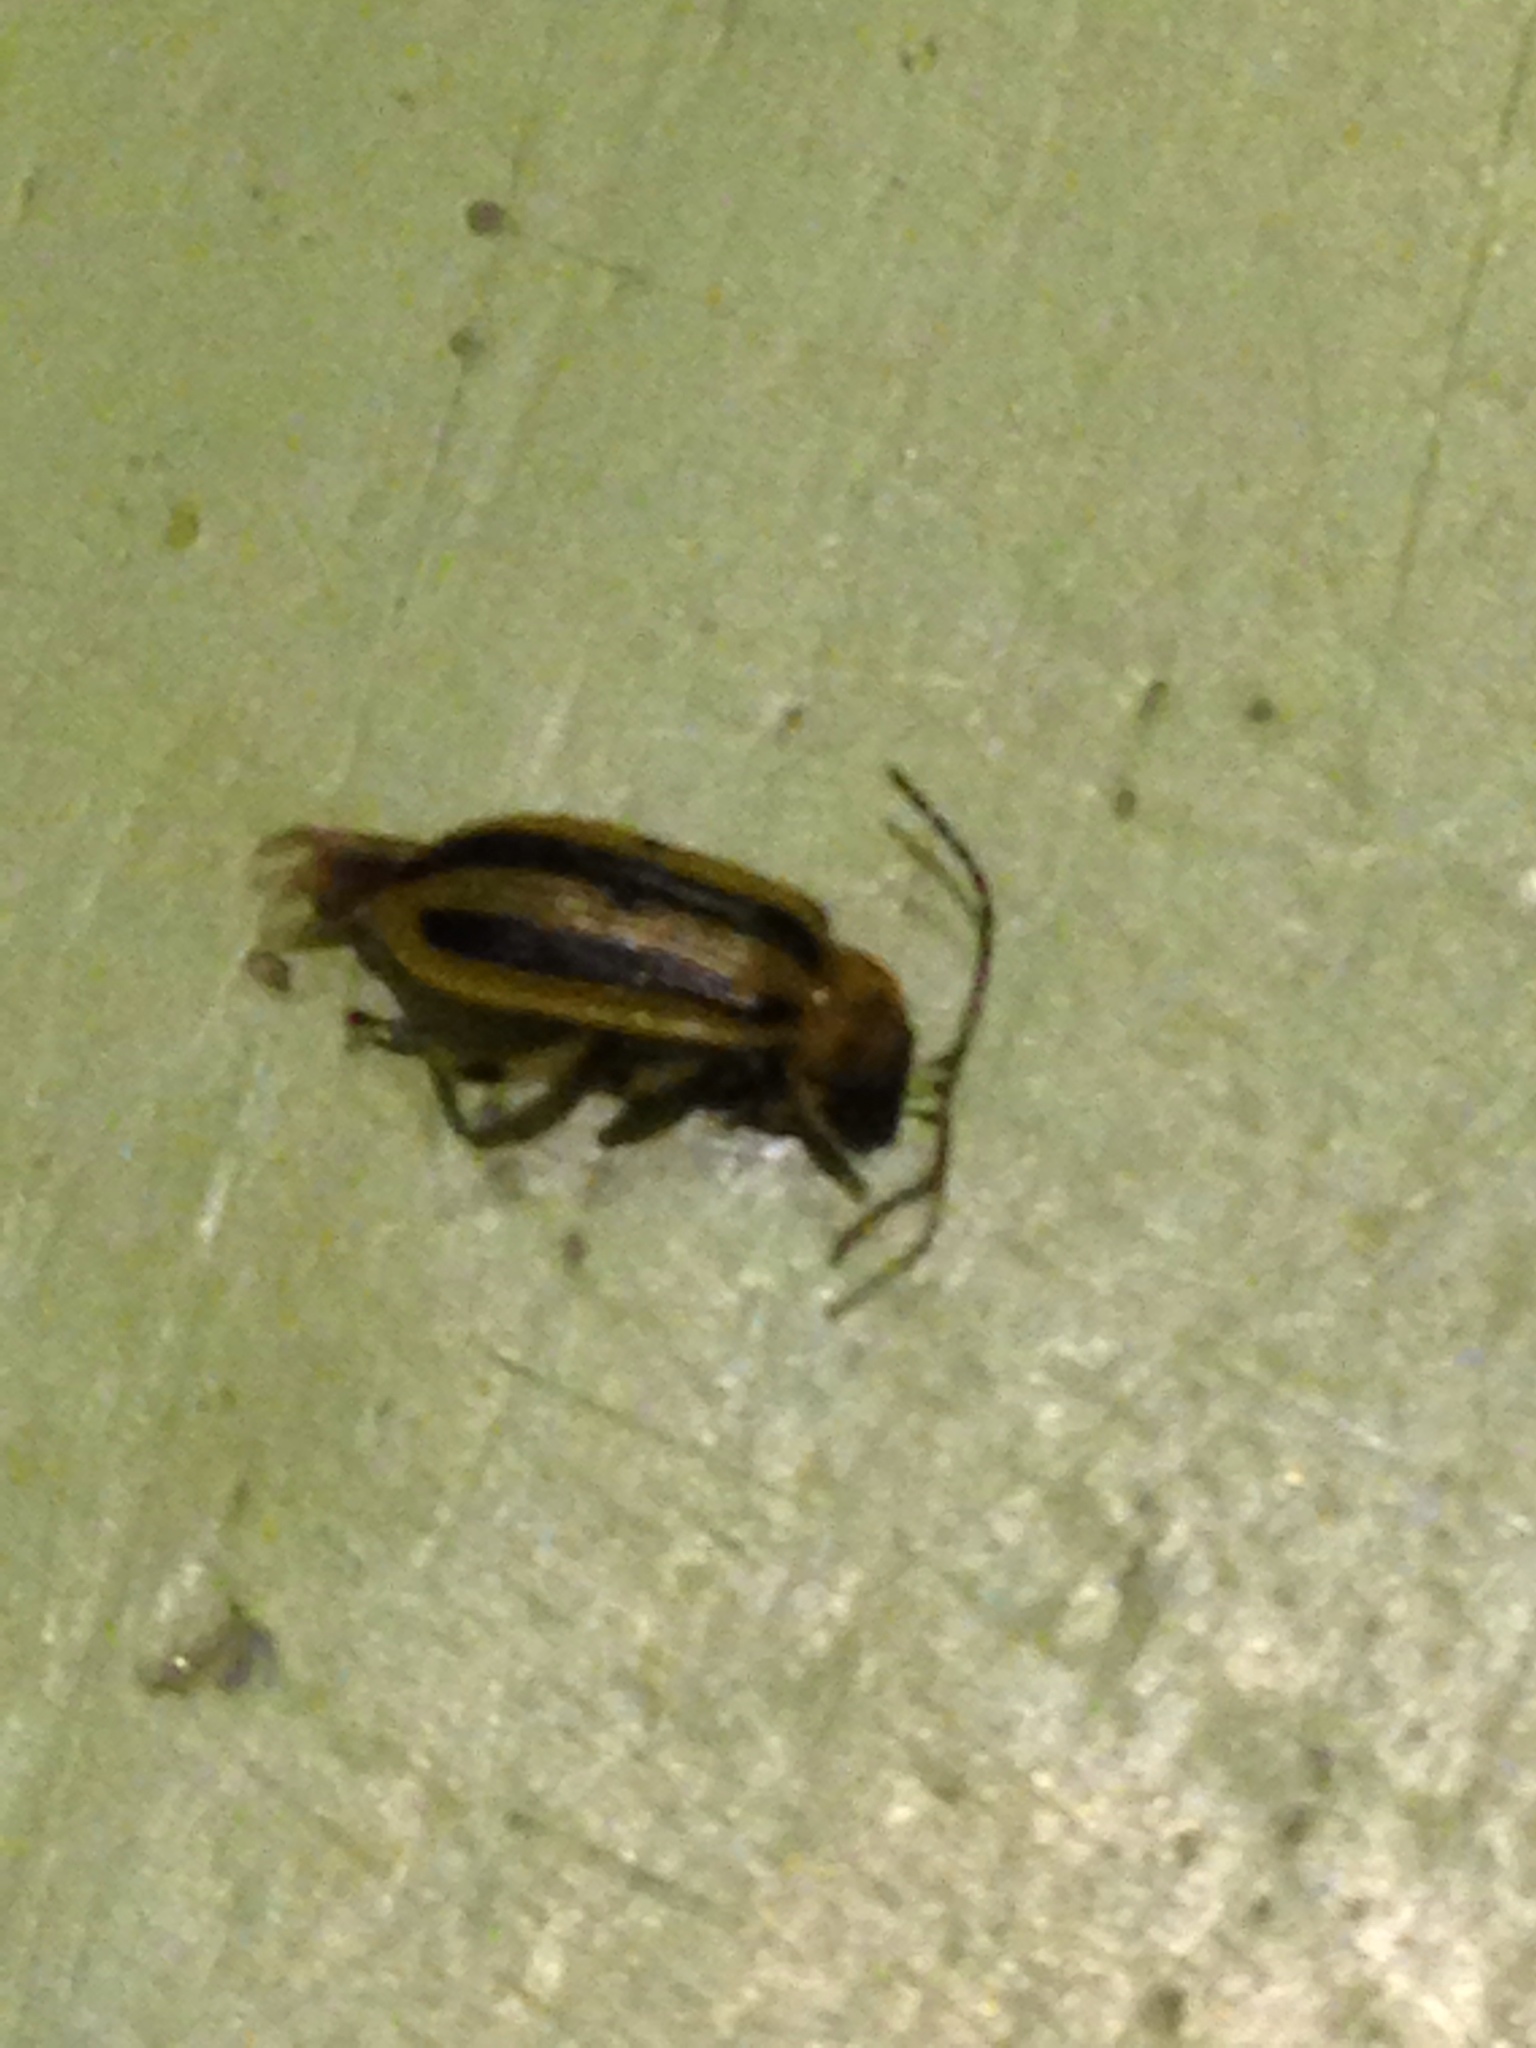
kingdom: Animalia
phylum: Arthropoda
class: Insecta
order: Coleoptera
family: Chrysomelidae
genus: Acalymma
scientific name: Acalymma vittatum
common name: Striped cucumber beetle
